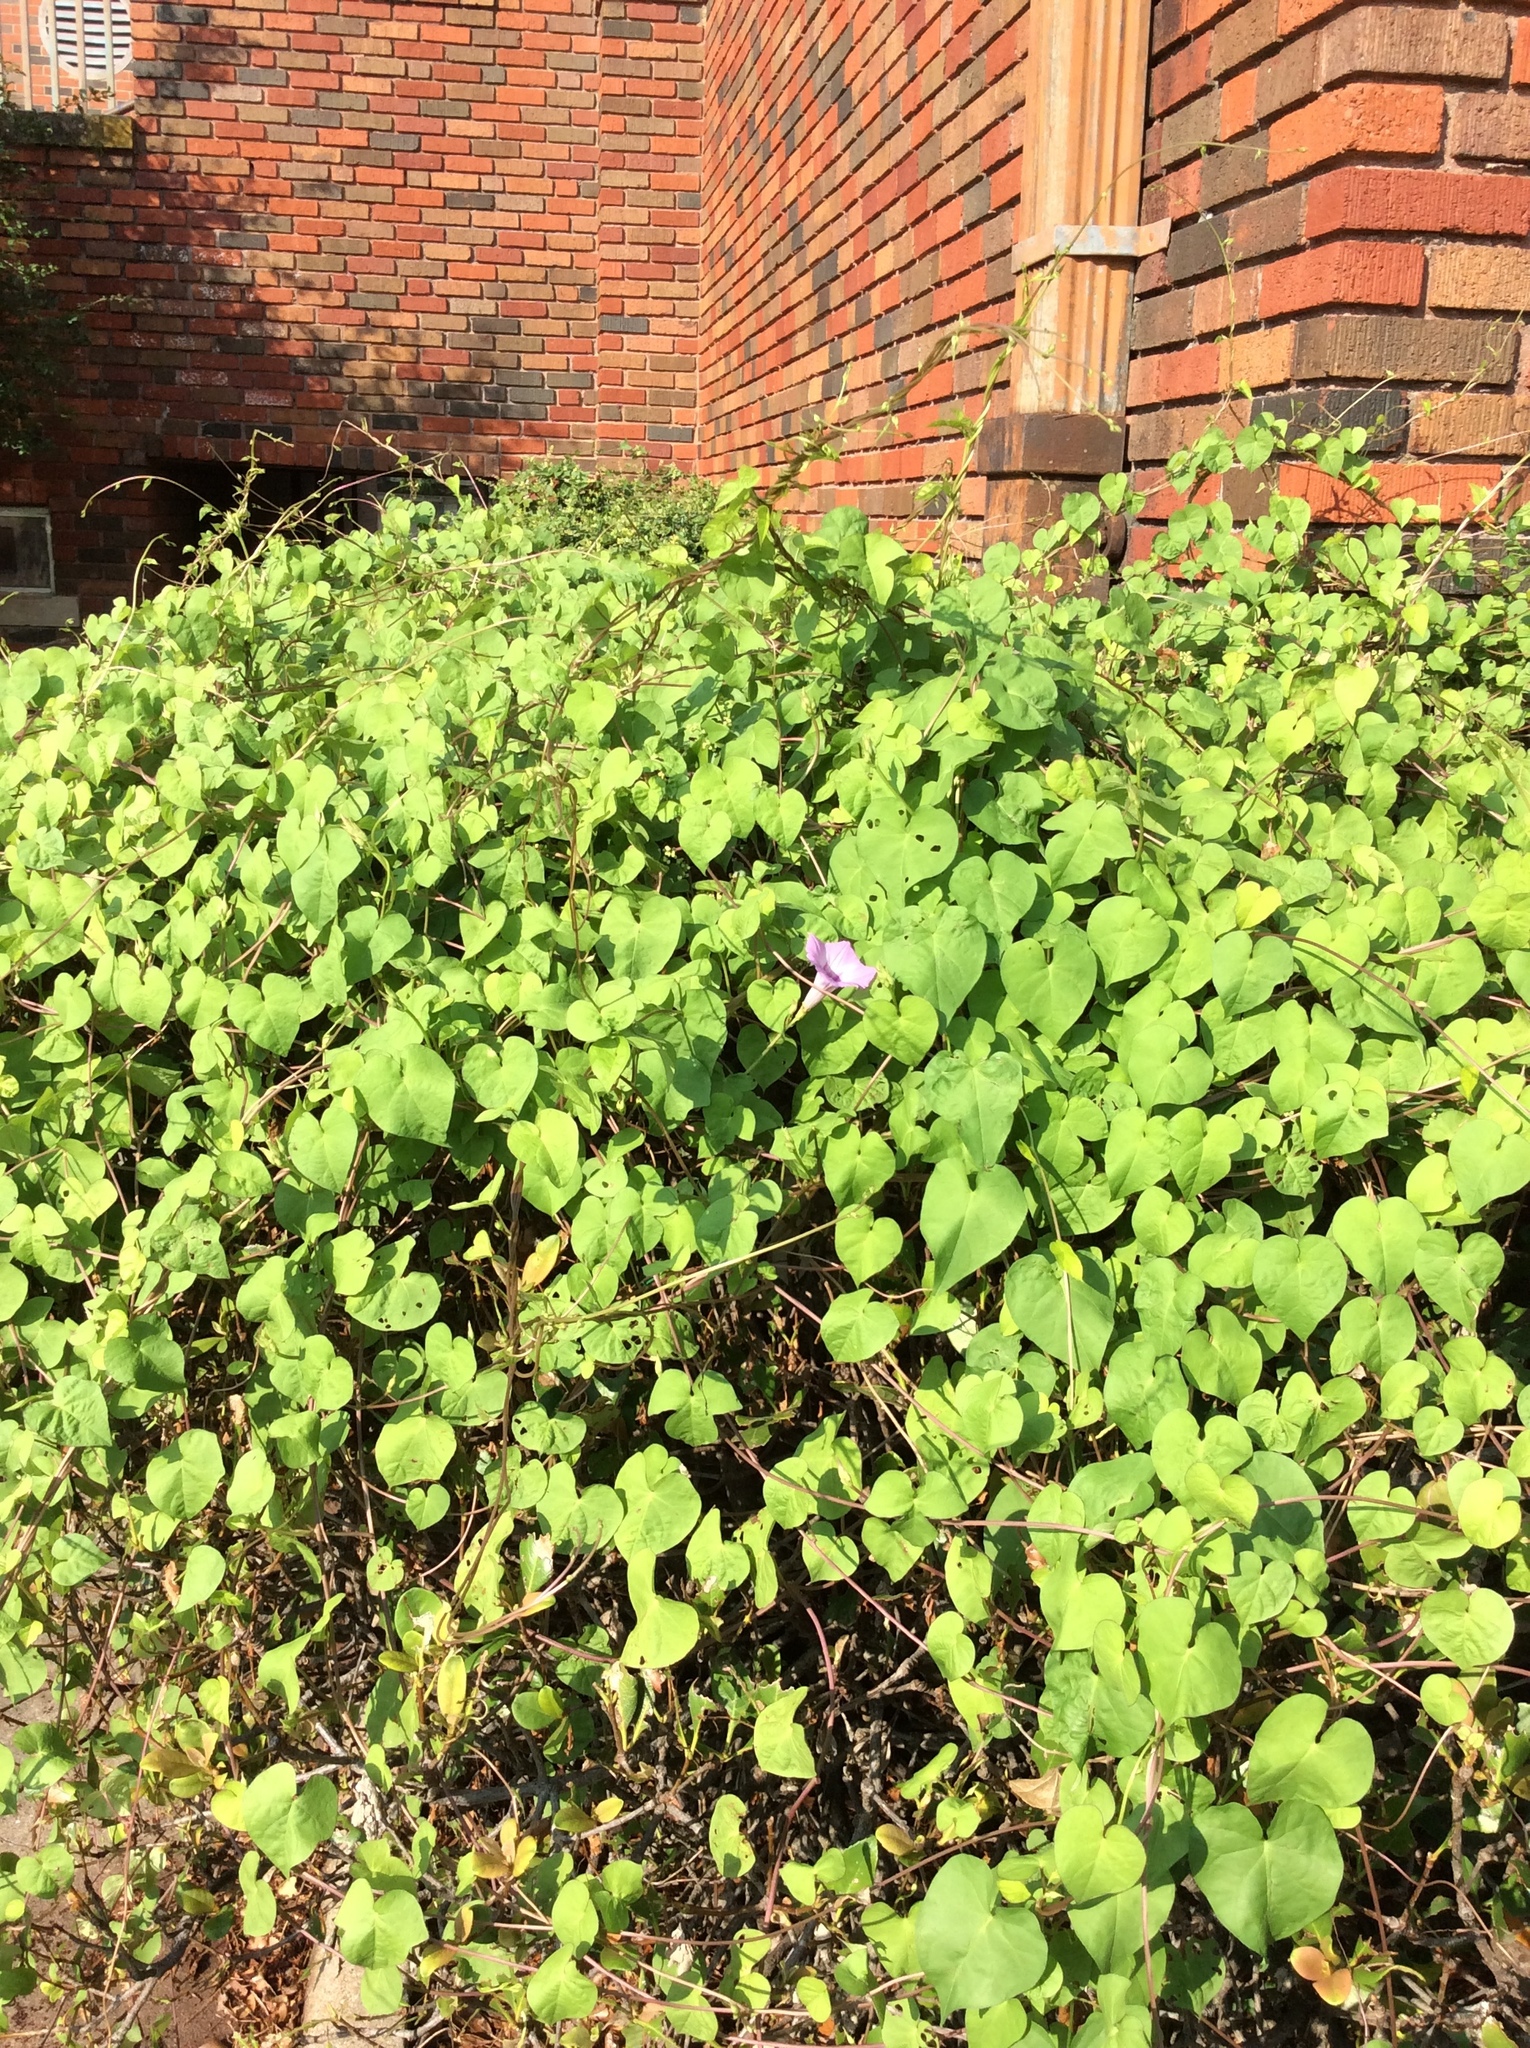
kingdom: Plantae
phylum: Tracheophyta
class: Magnoliopsida
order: Solanales
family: Convolvulaceae
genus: Ipomoea
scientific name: Ipomoea cordatotriloba
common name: Cotton morning glory
